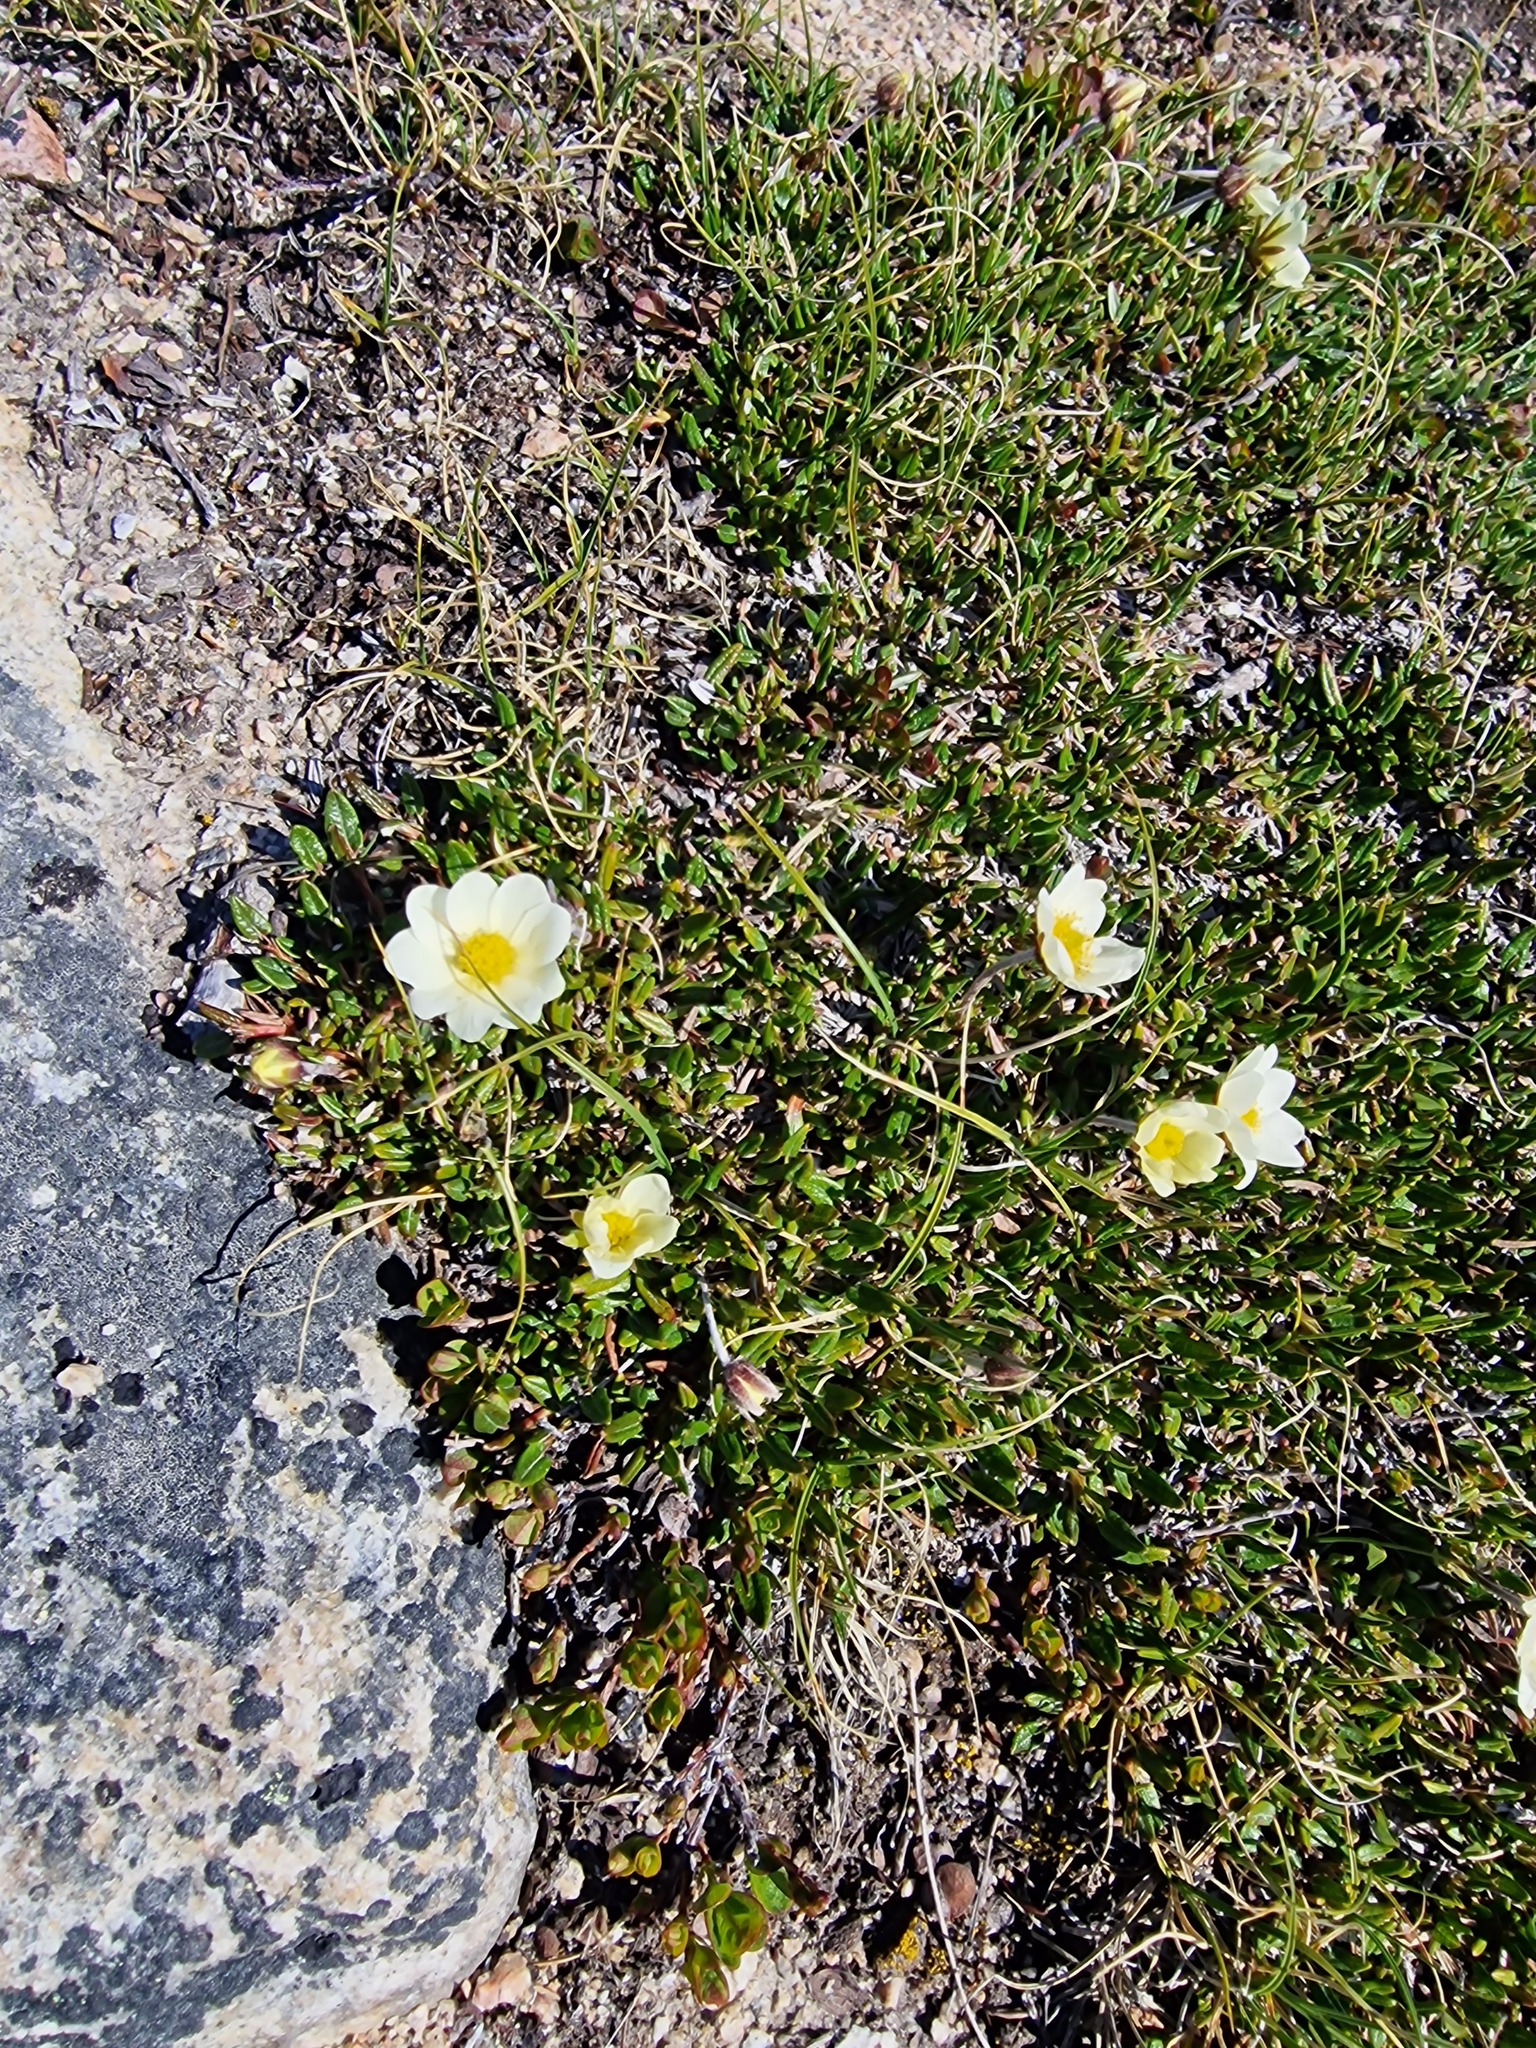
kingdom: Plantae
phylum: Tracheophyta
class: Magnoliopsida
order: Rosales
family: Rosaceae
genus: Dryas
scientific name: Dryas integrifolia
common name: Entire-leaved mountain avens
